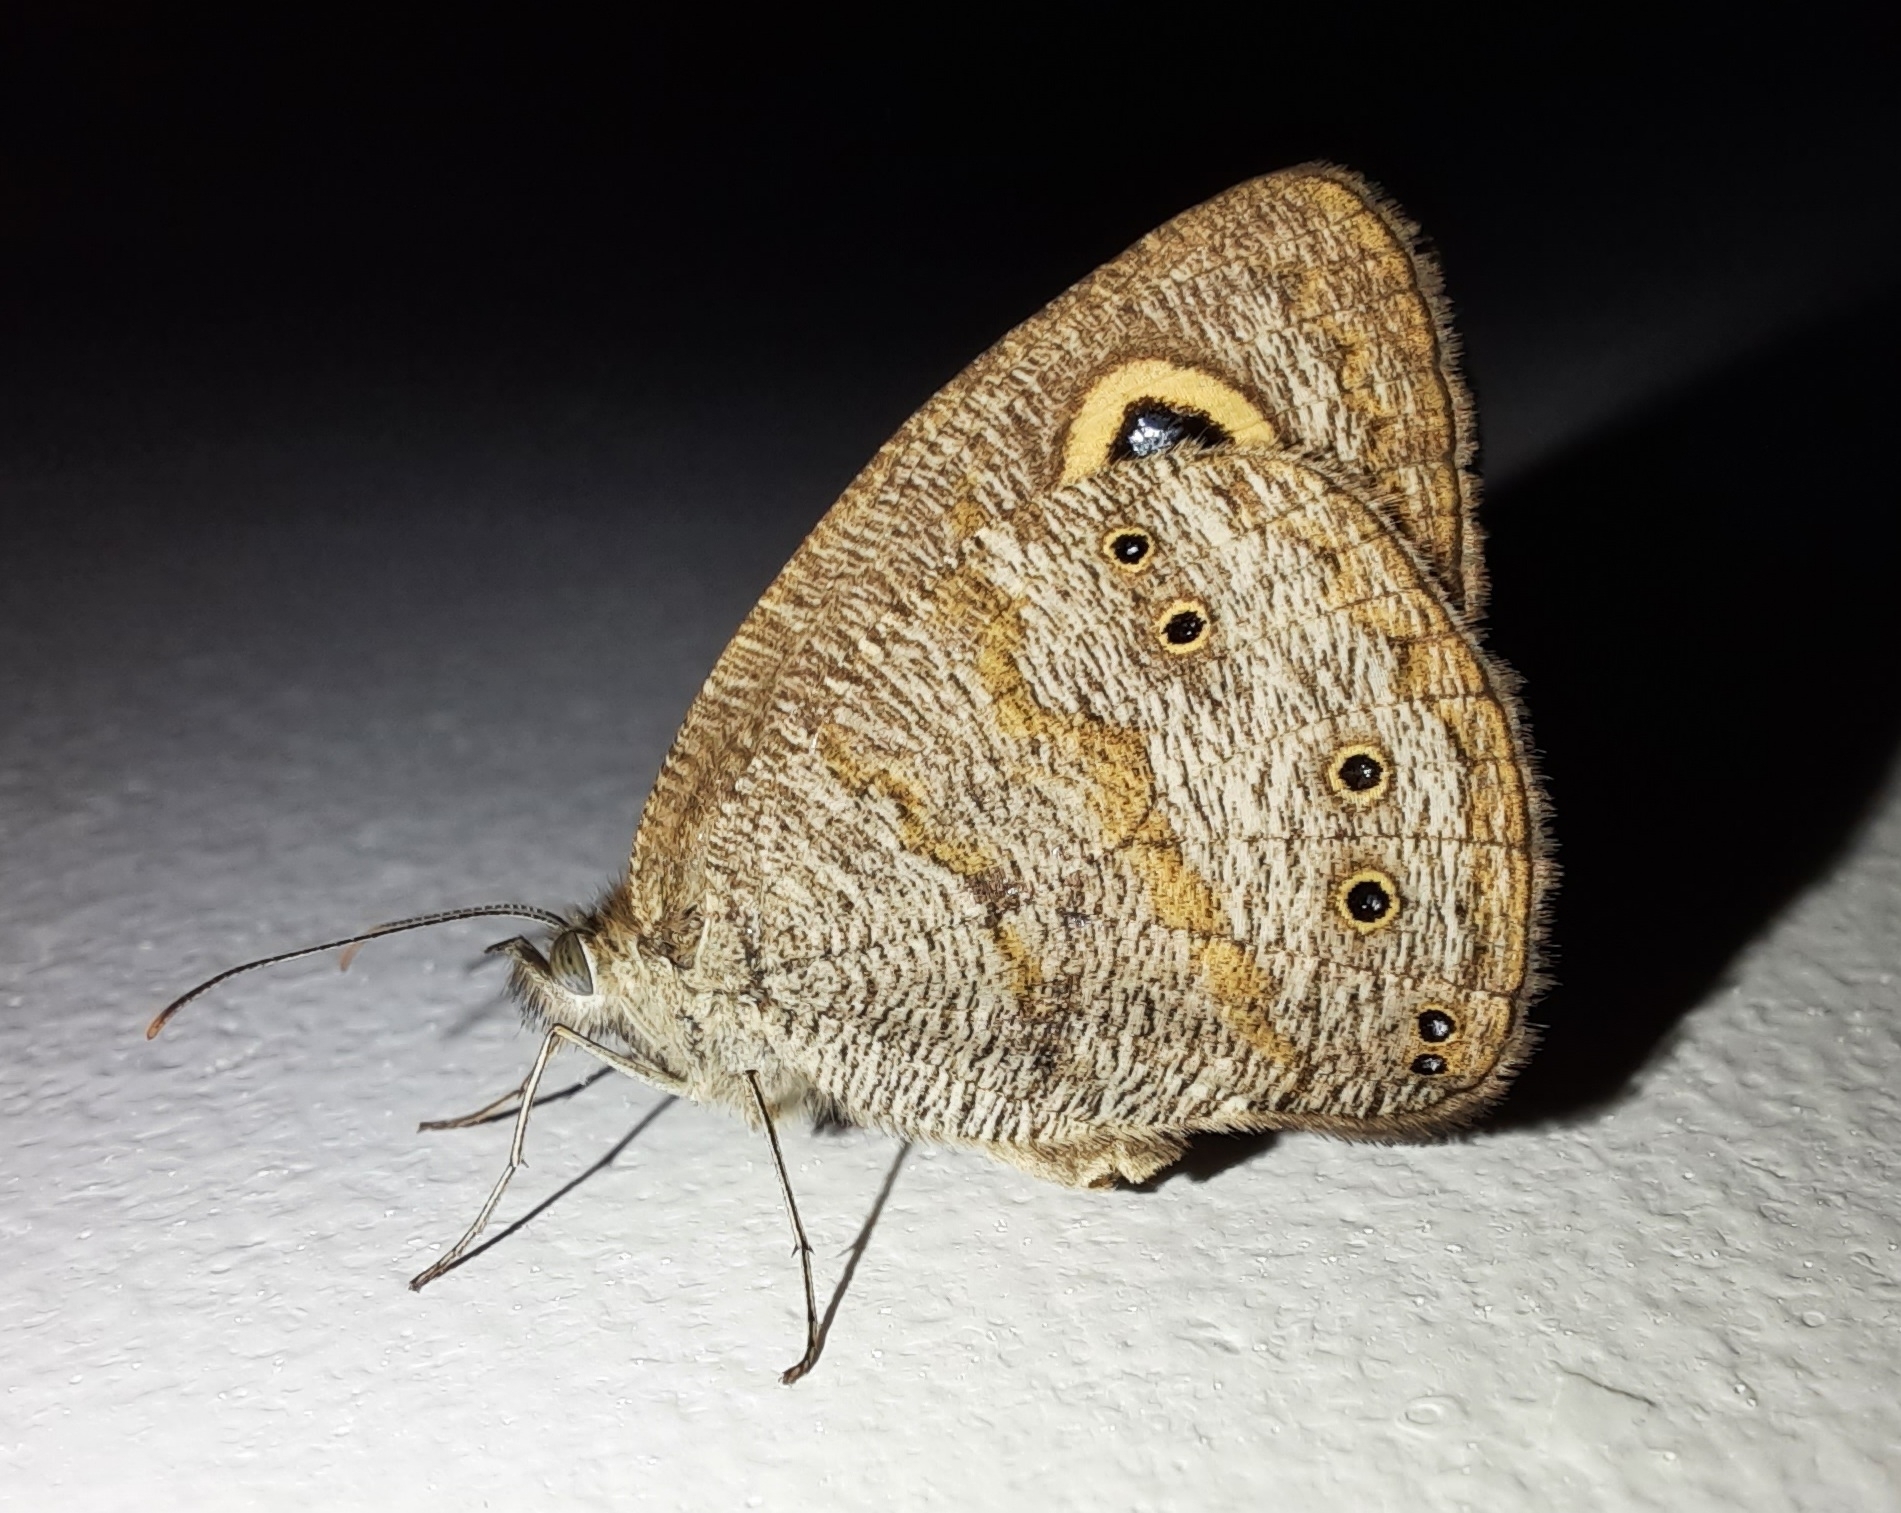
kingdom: Animalia
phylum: Arthropoda
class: Insecta
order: Lepidoptera
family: Nymphalidae
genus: Ypthima
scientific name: Ypthima baldus
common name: Common five-ring
